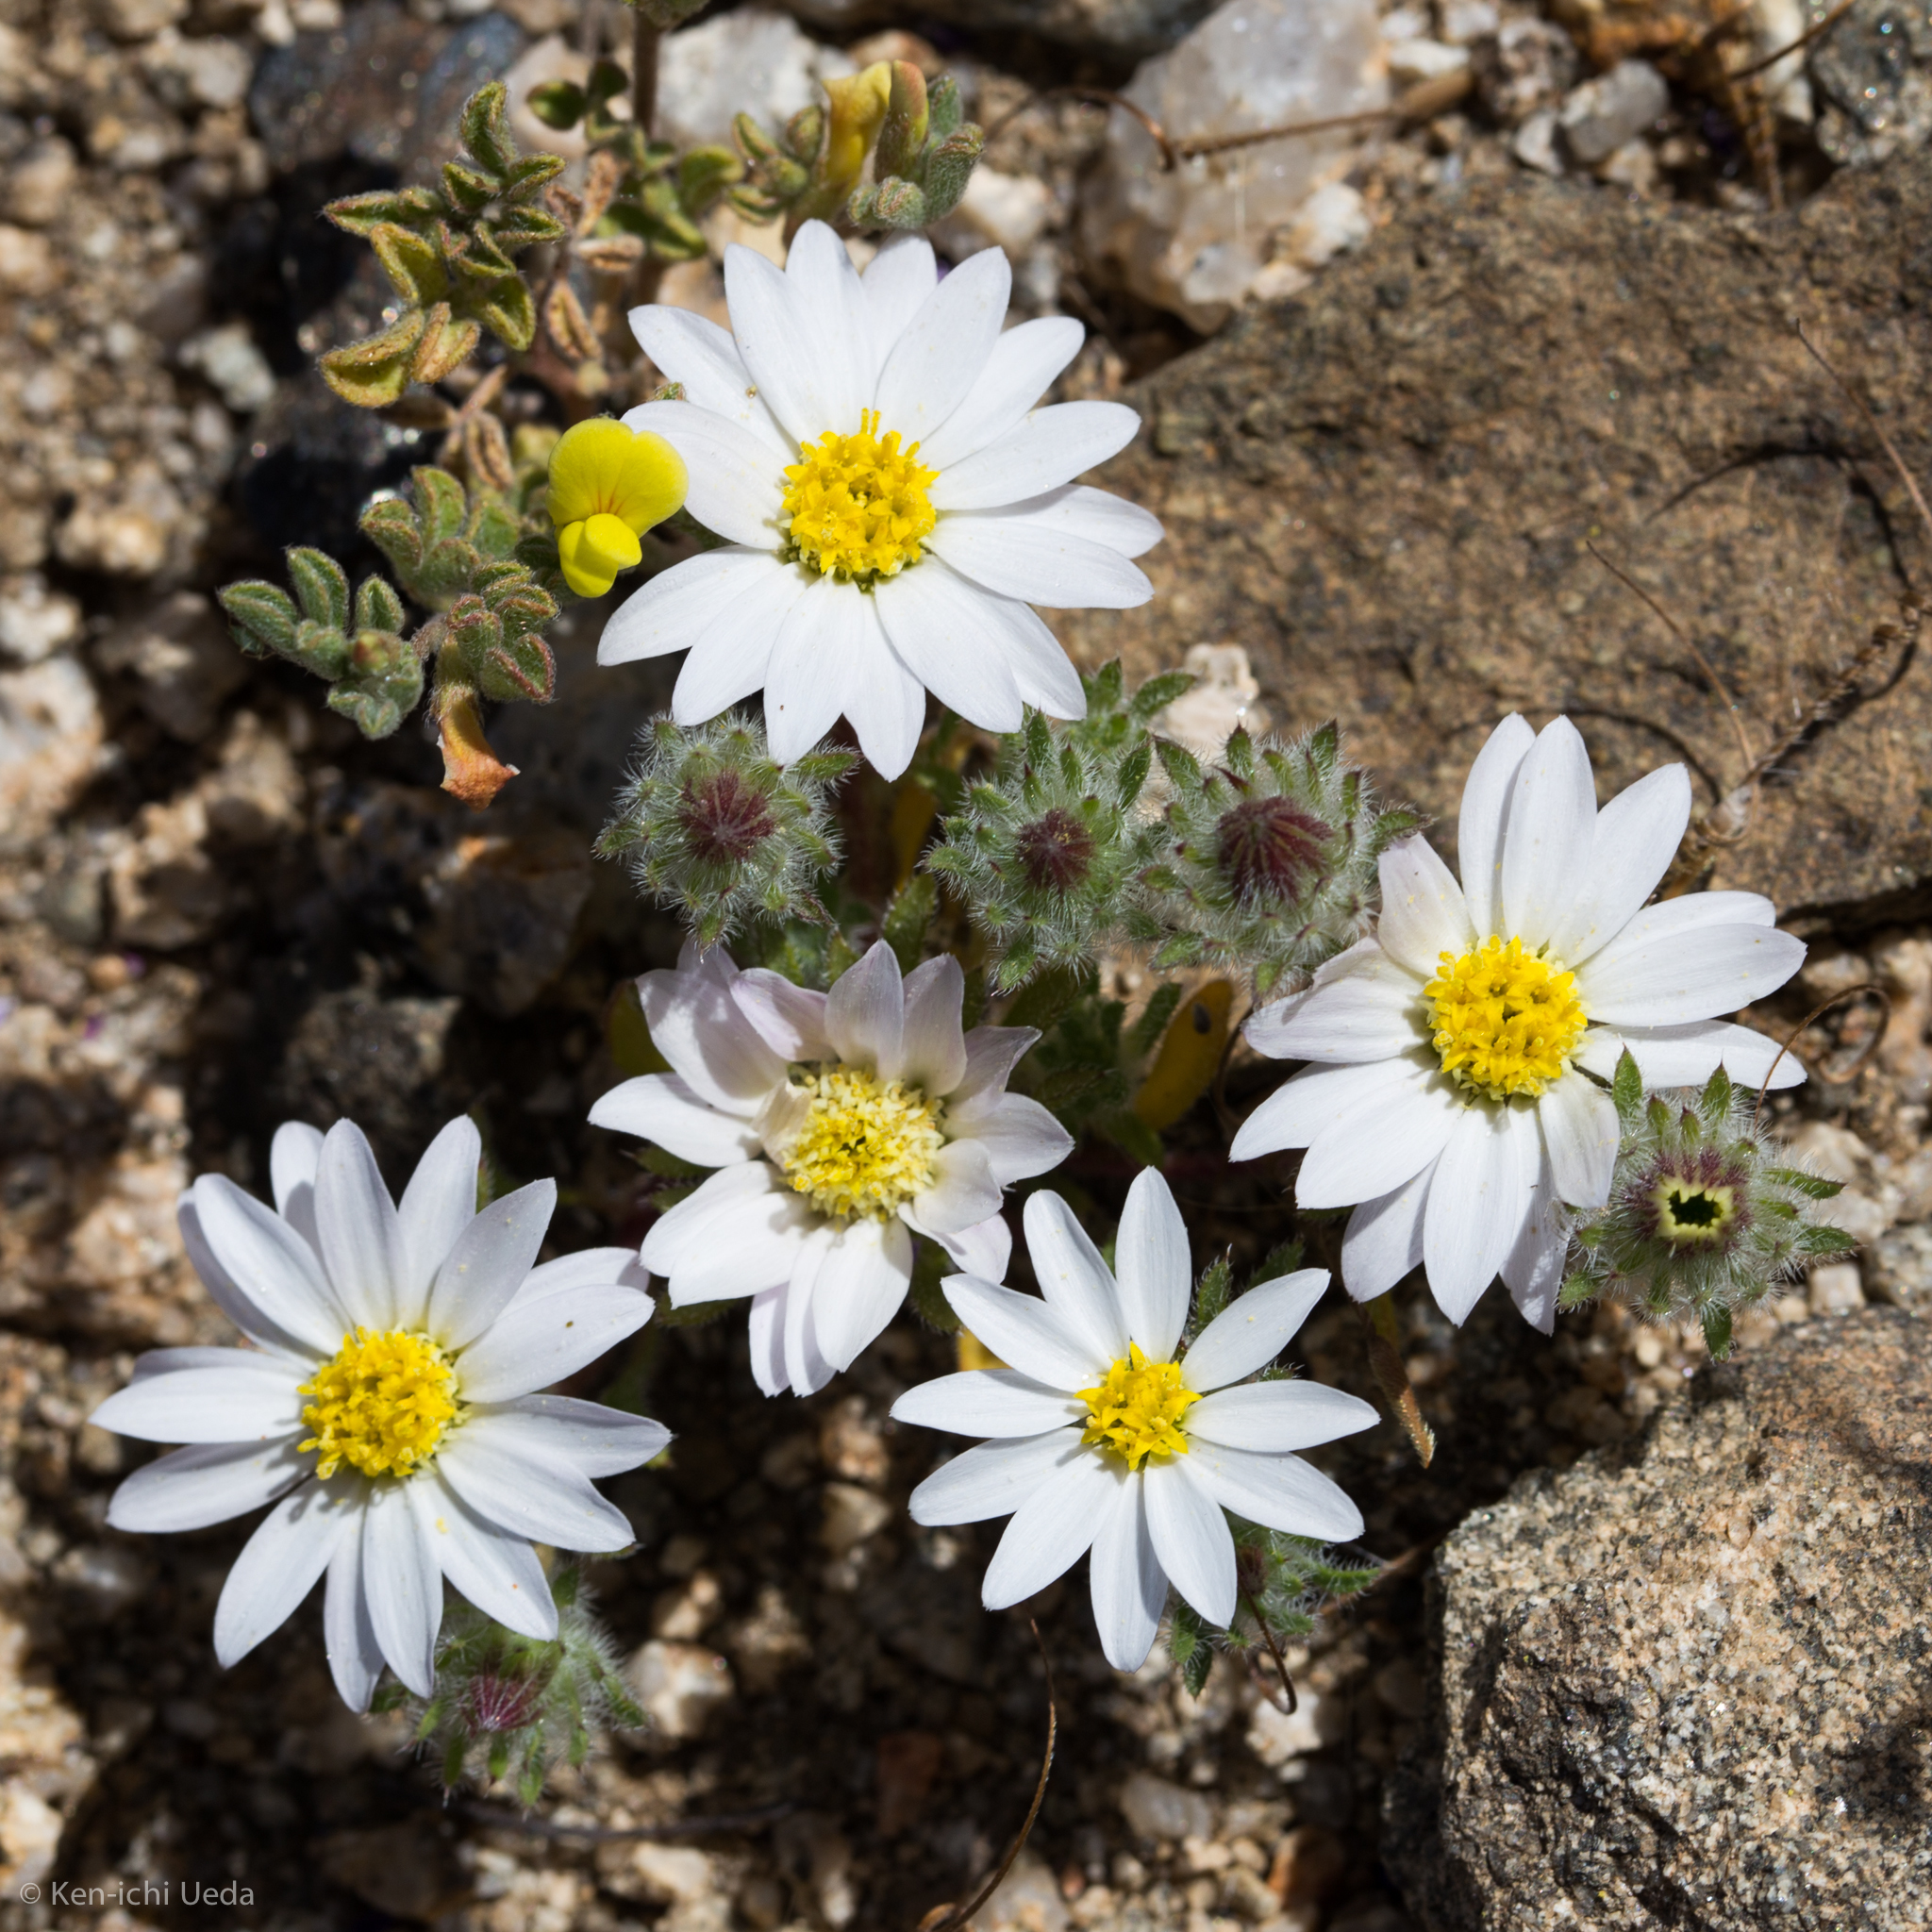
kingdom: Plantae
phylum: Tracheophyta
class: Magnoliopsida
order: Asterales
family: Asteraceae
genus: Monoptilon
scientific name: Monoptilon bellioides
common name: Bristly desertstar
